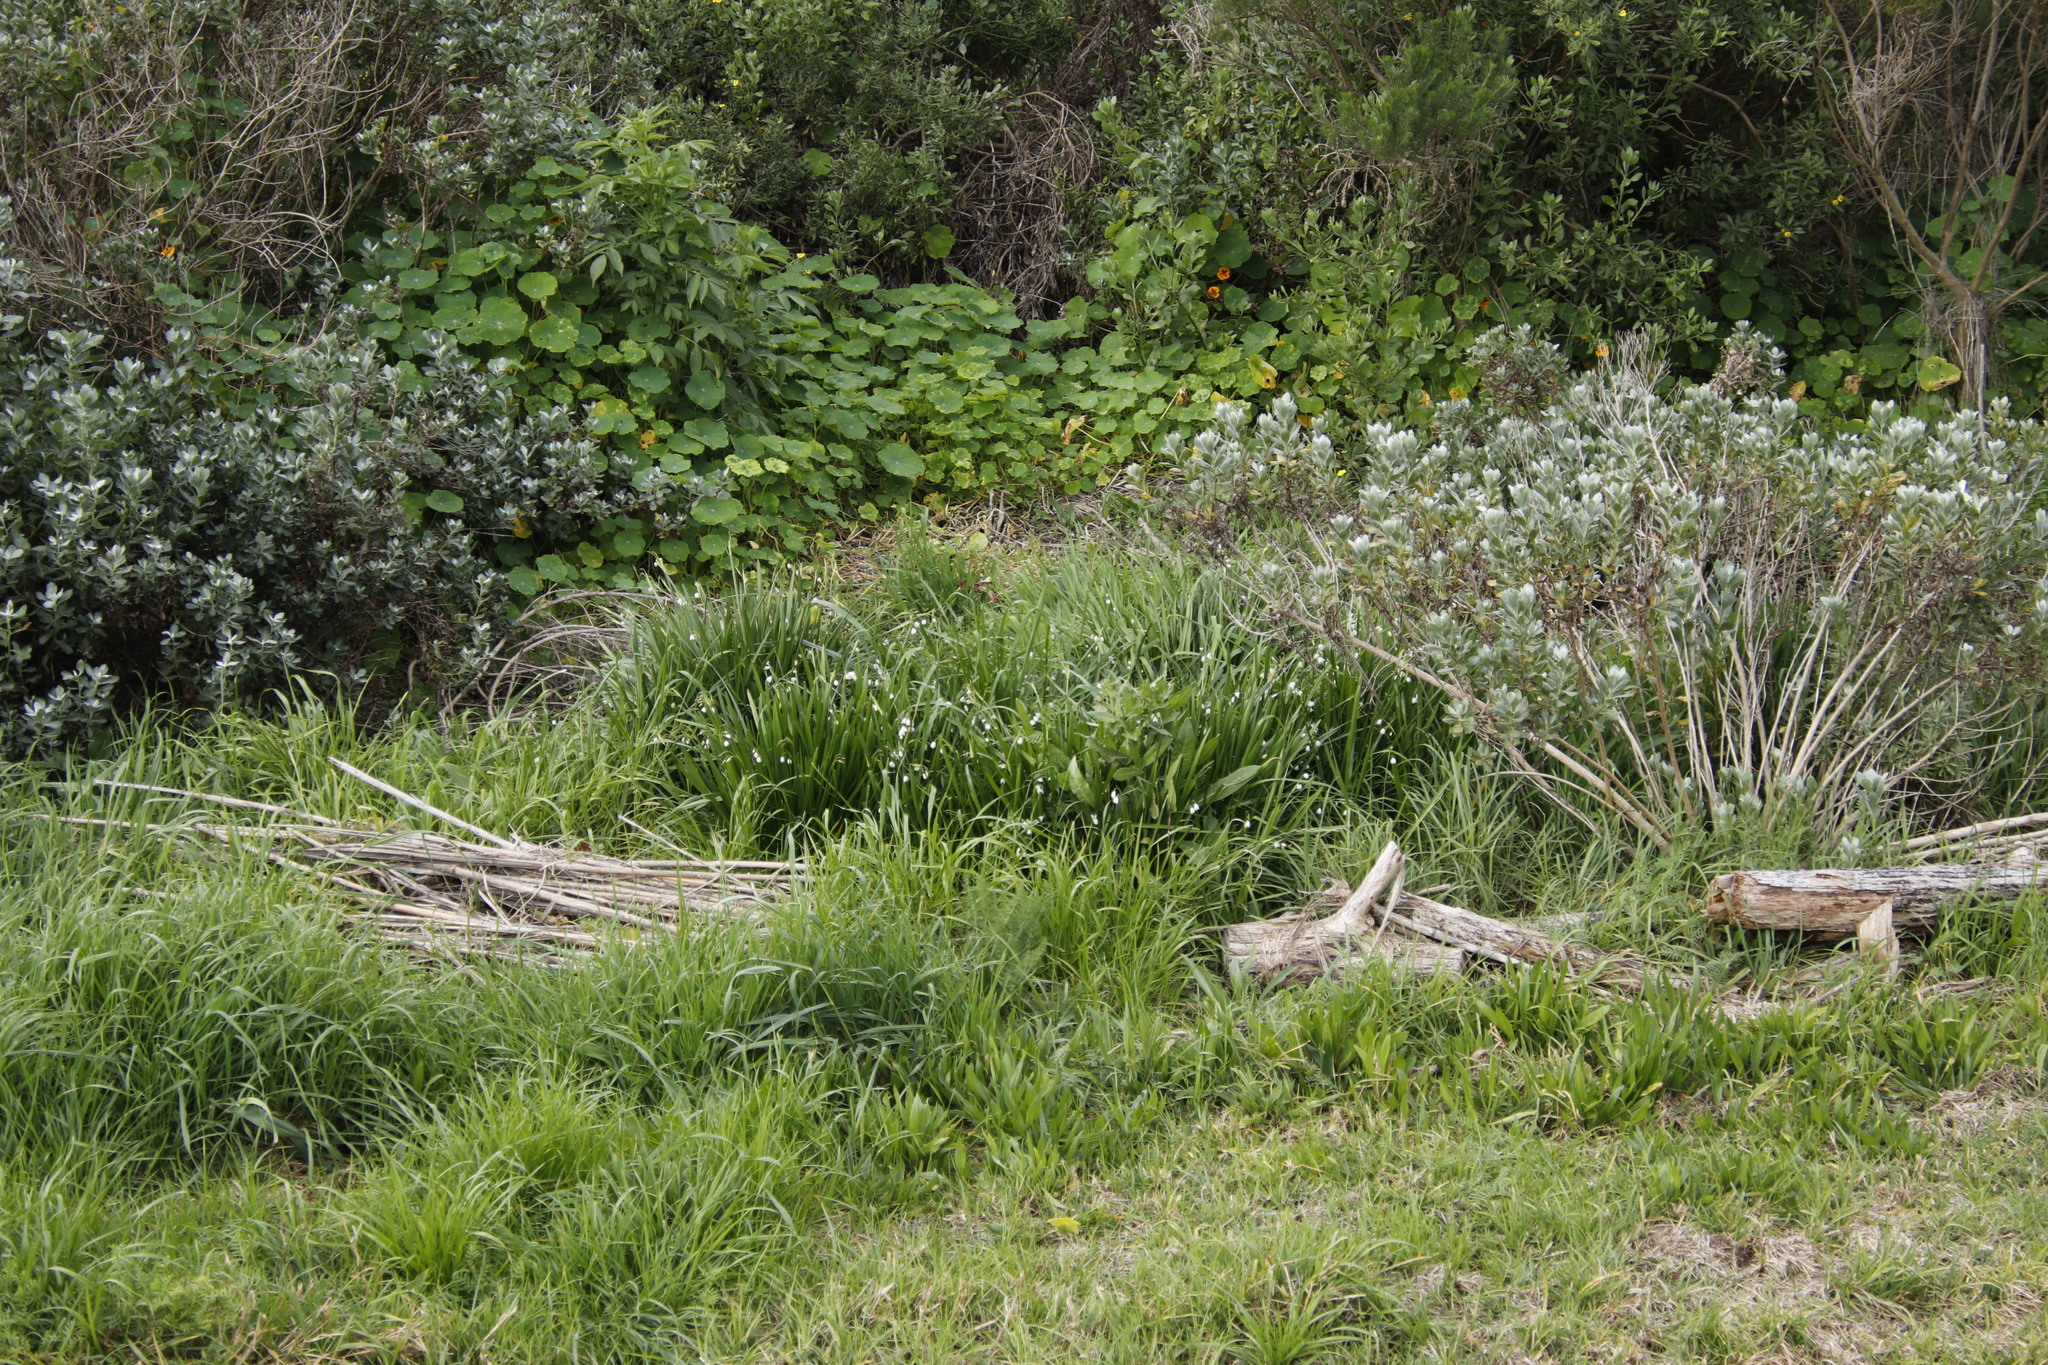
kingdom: Plantae
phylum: Tracheophyta
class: Liliopsida
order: Asparagales
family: Amaryllidaceae
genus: Leucojum
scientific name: Leucojum aestivum
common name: Summer snowflake
